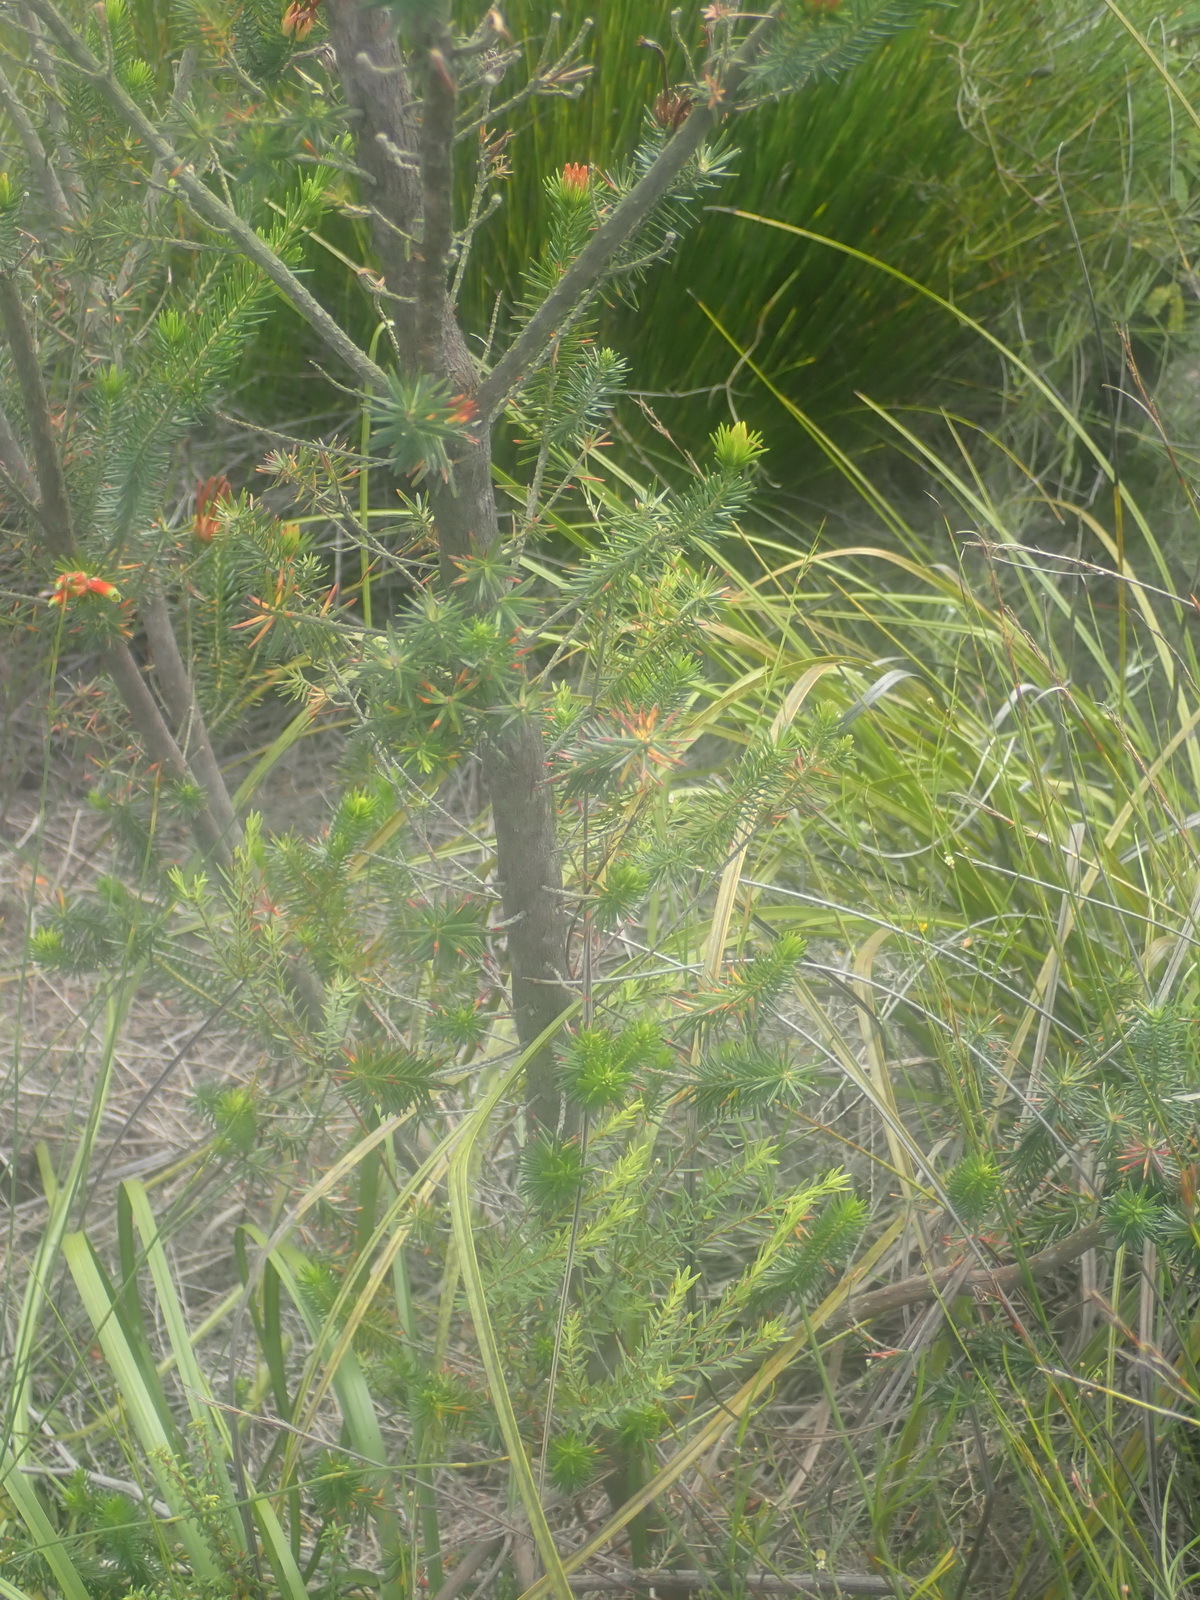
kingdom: Plantae
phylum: Tracheophyta
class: Magnoliopsida
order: Ericales
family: Ericaceae
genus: Erica
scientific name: Erica unicolor
